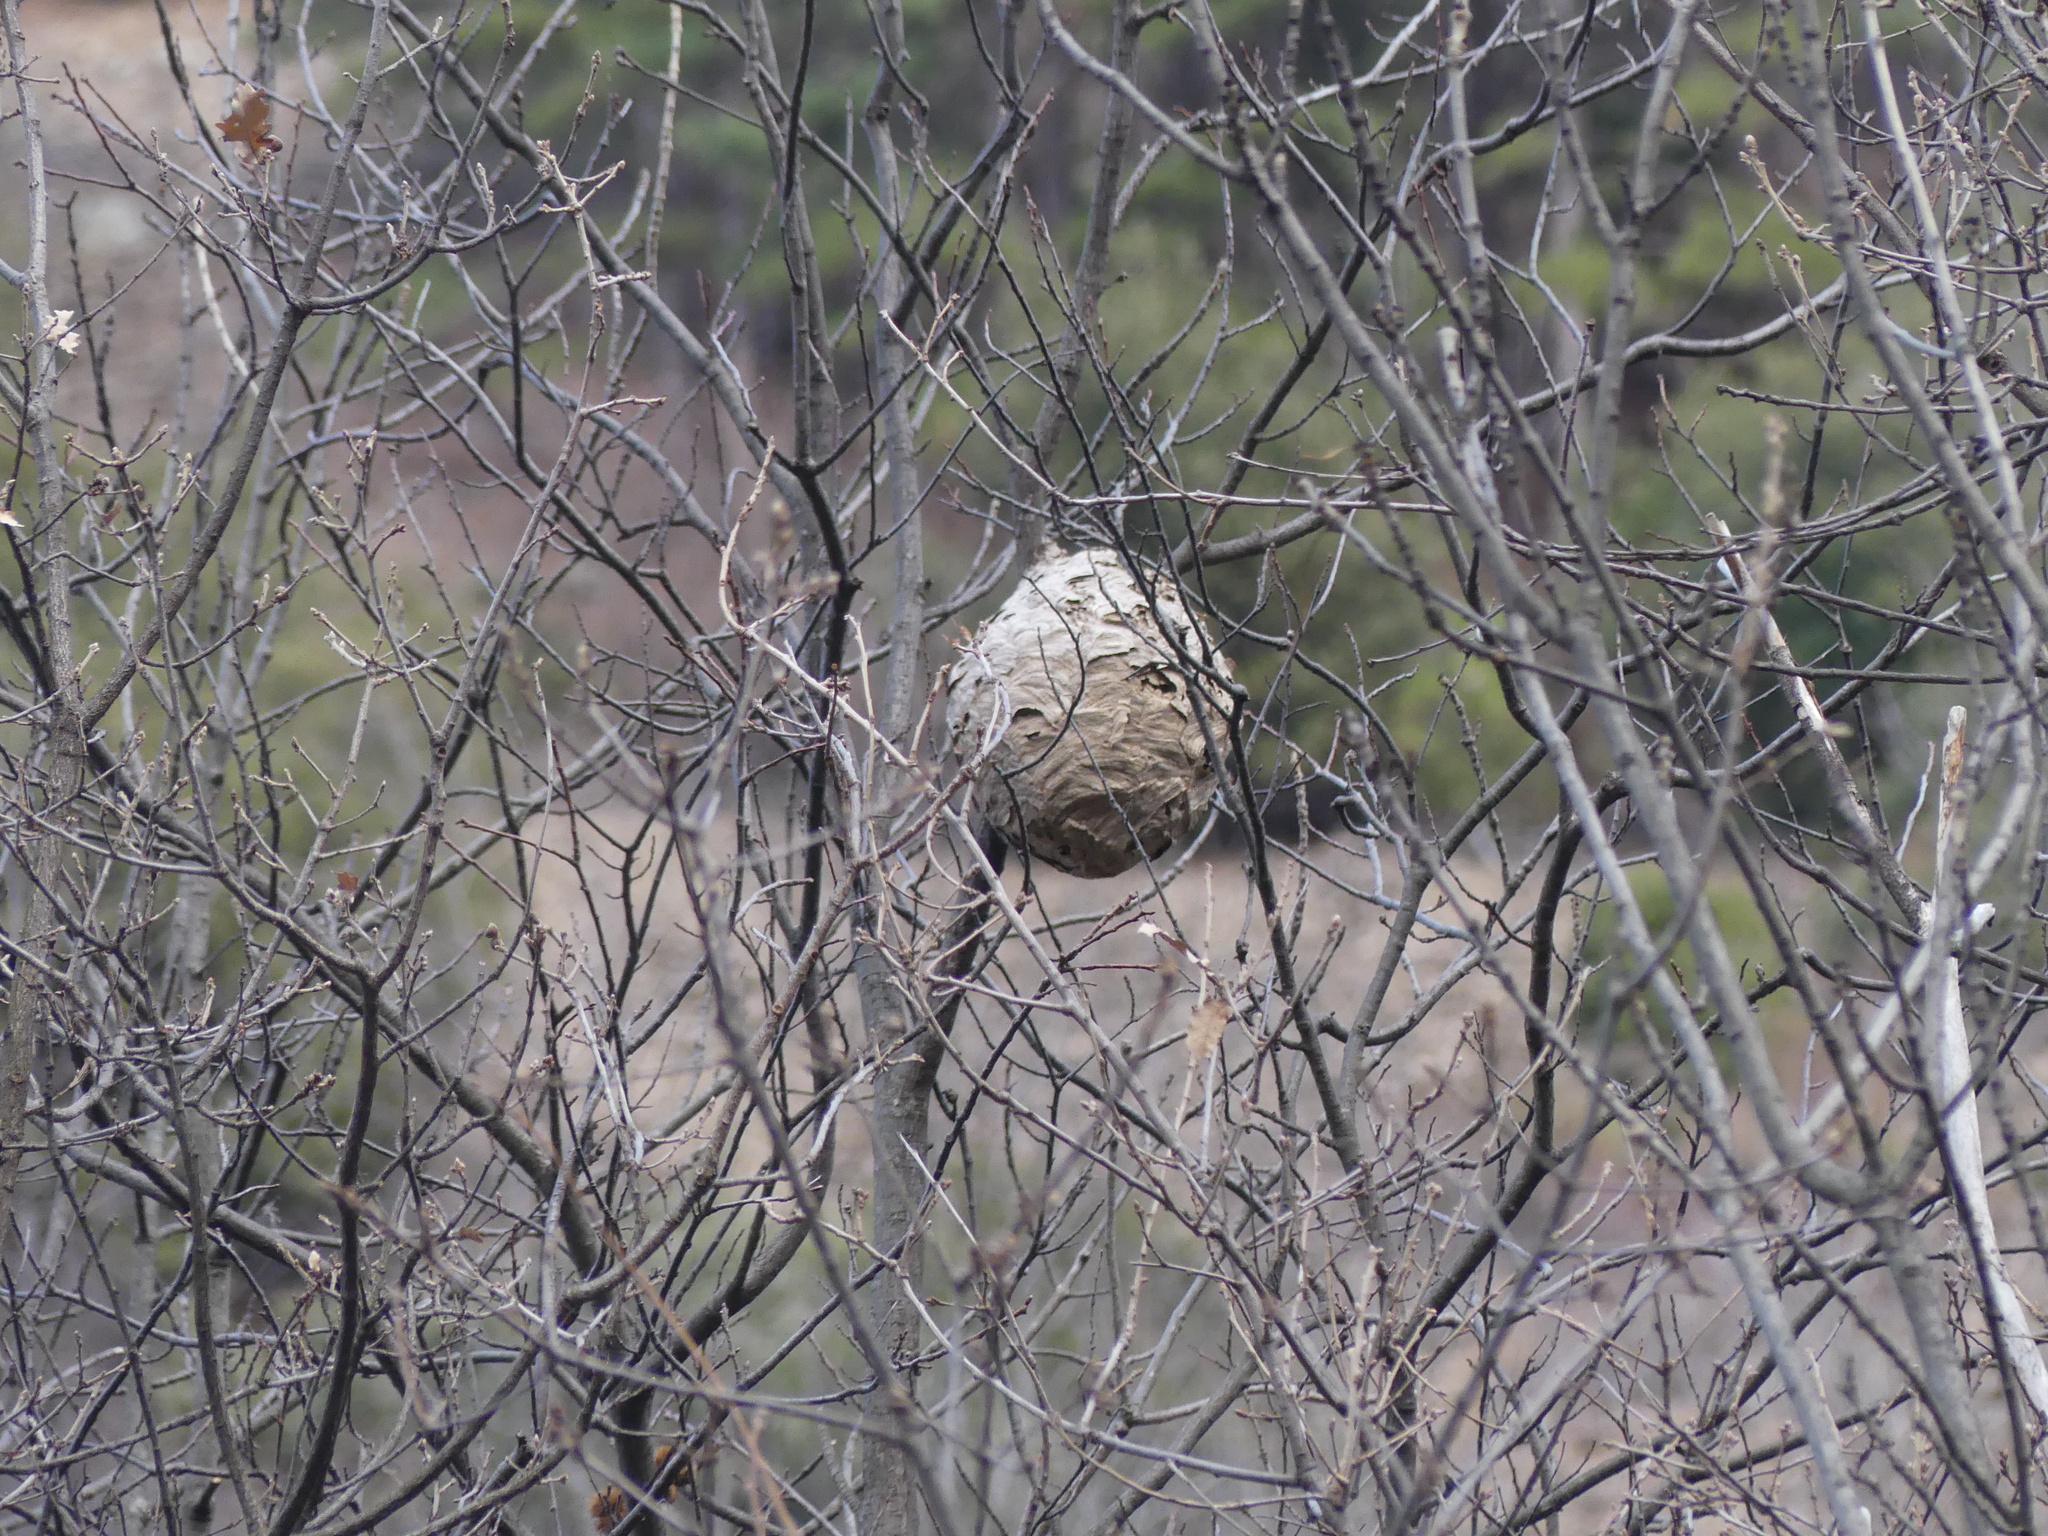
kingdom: Animalia
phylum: Arthropoda
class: Insecta
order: Hymenoptera
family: Vespidae
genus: Vespa
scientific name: Vespa velutina
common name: Asian hornet
